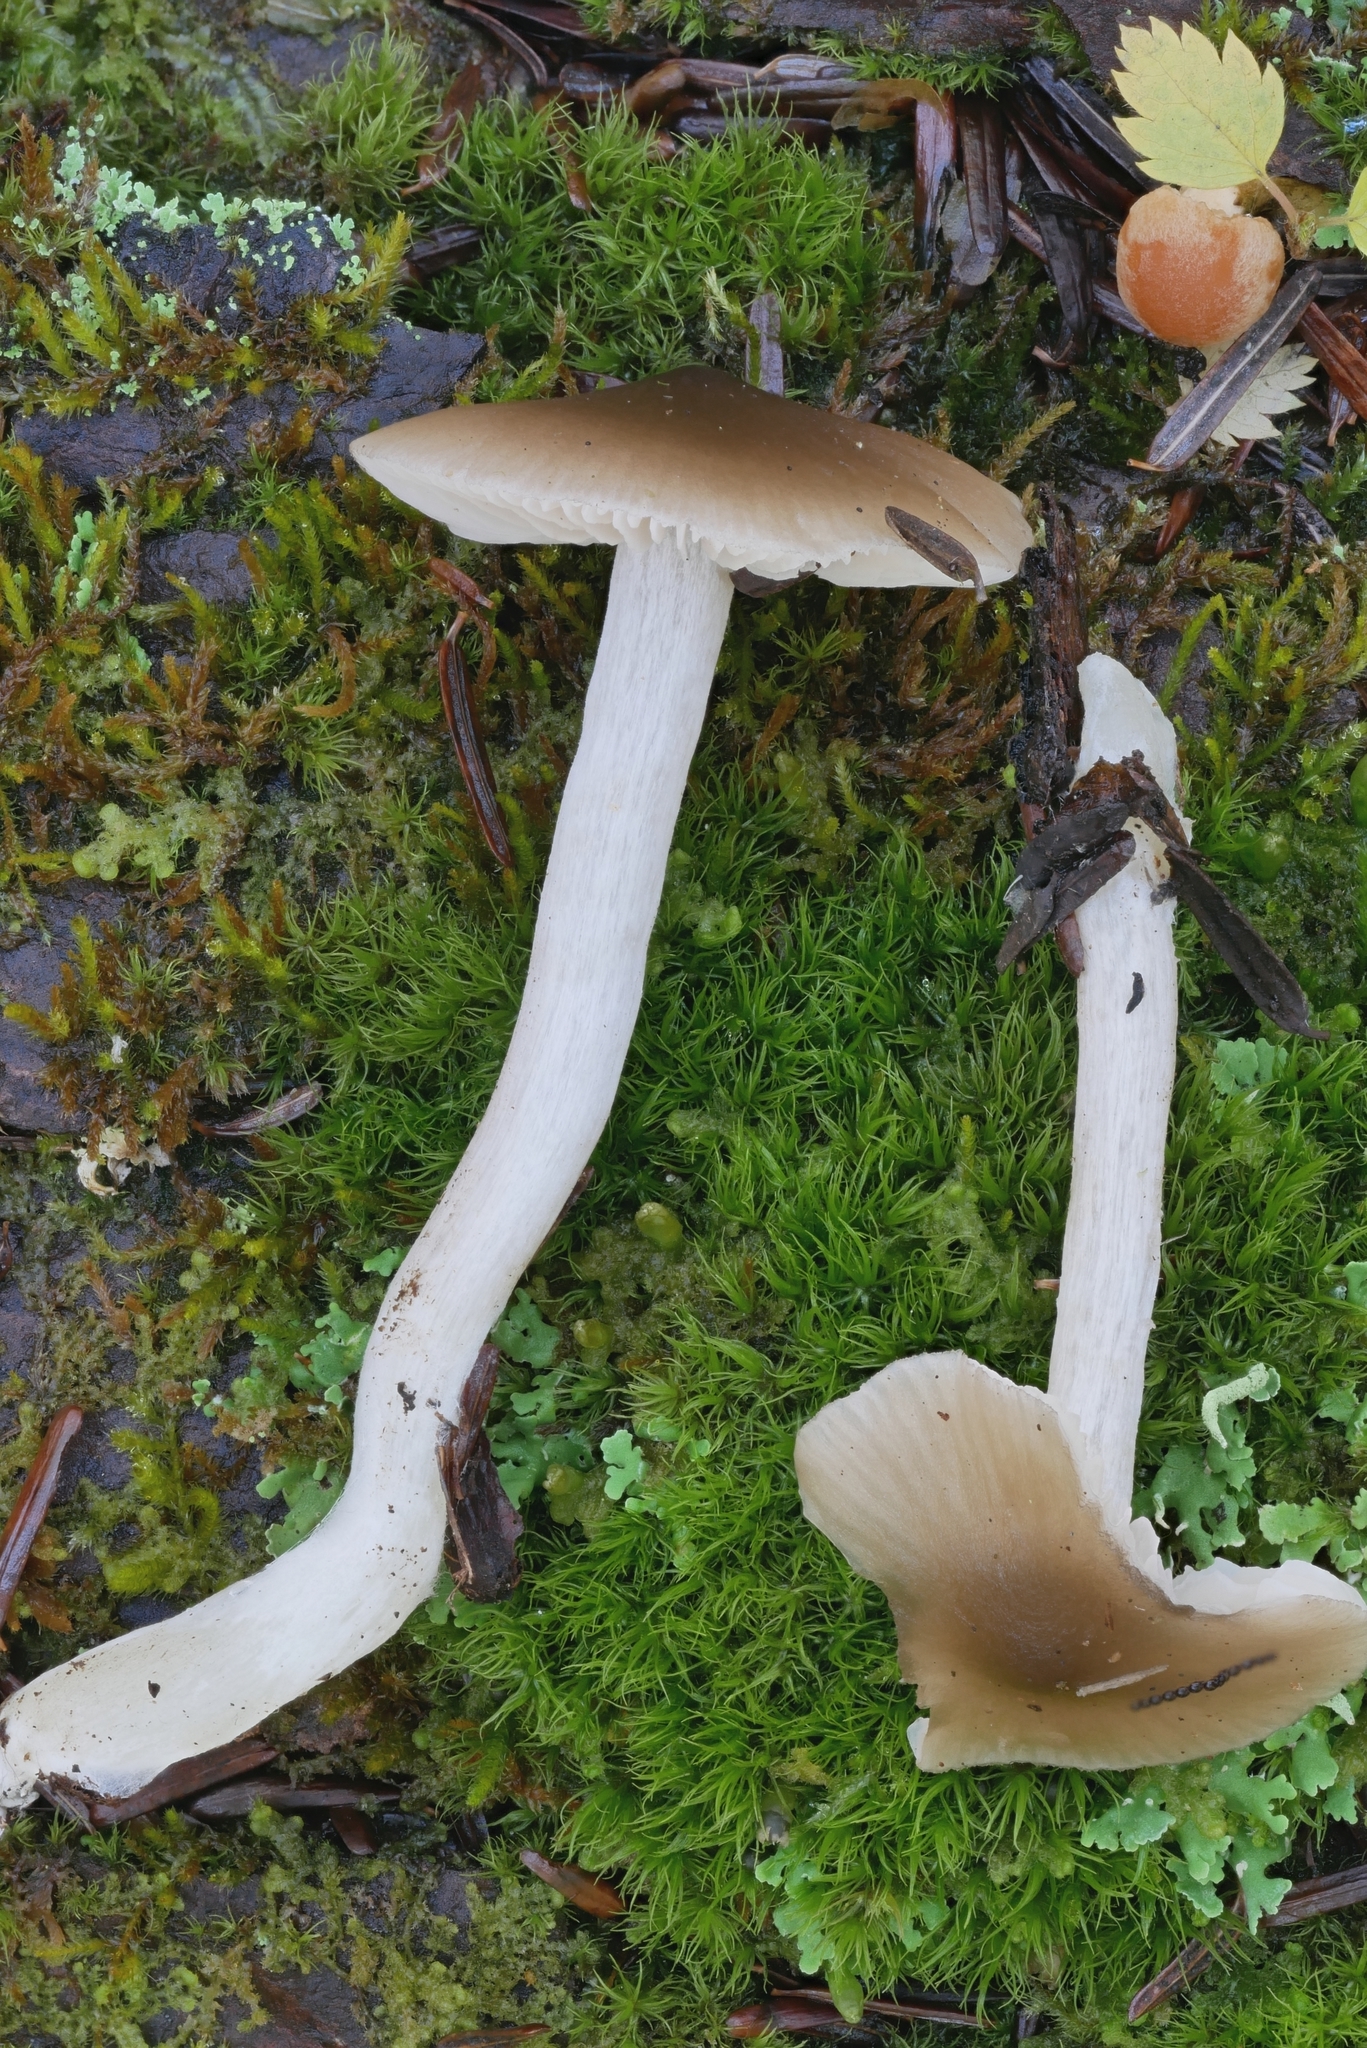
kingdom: Fungi
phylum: Basidiomycota
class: Agaricomycetes
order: Agaricales
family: Entolomataceae
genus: Entocybe
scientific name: Entocybe turbida
